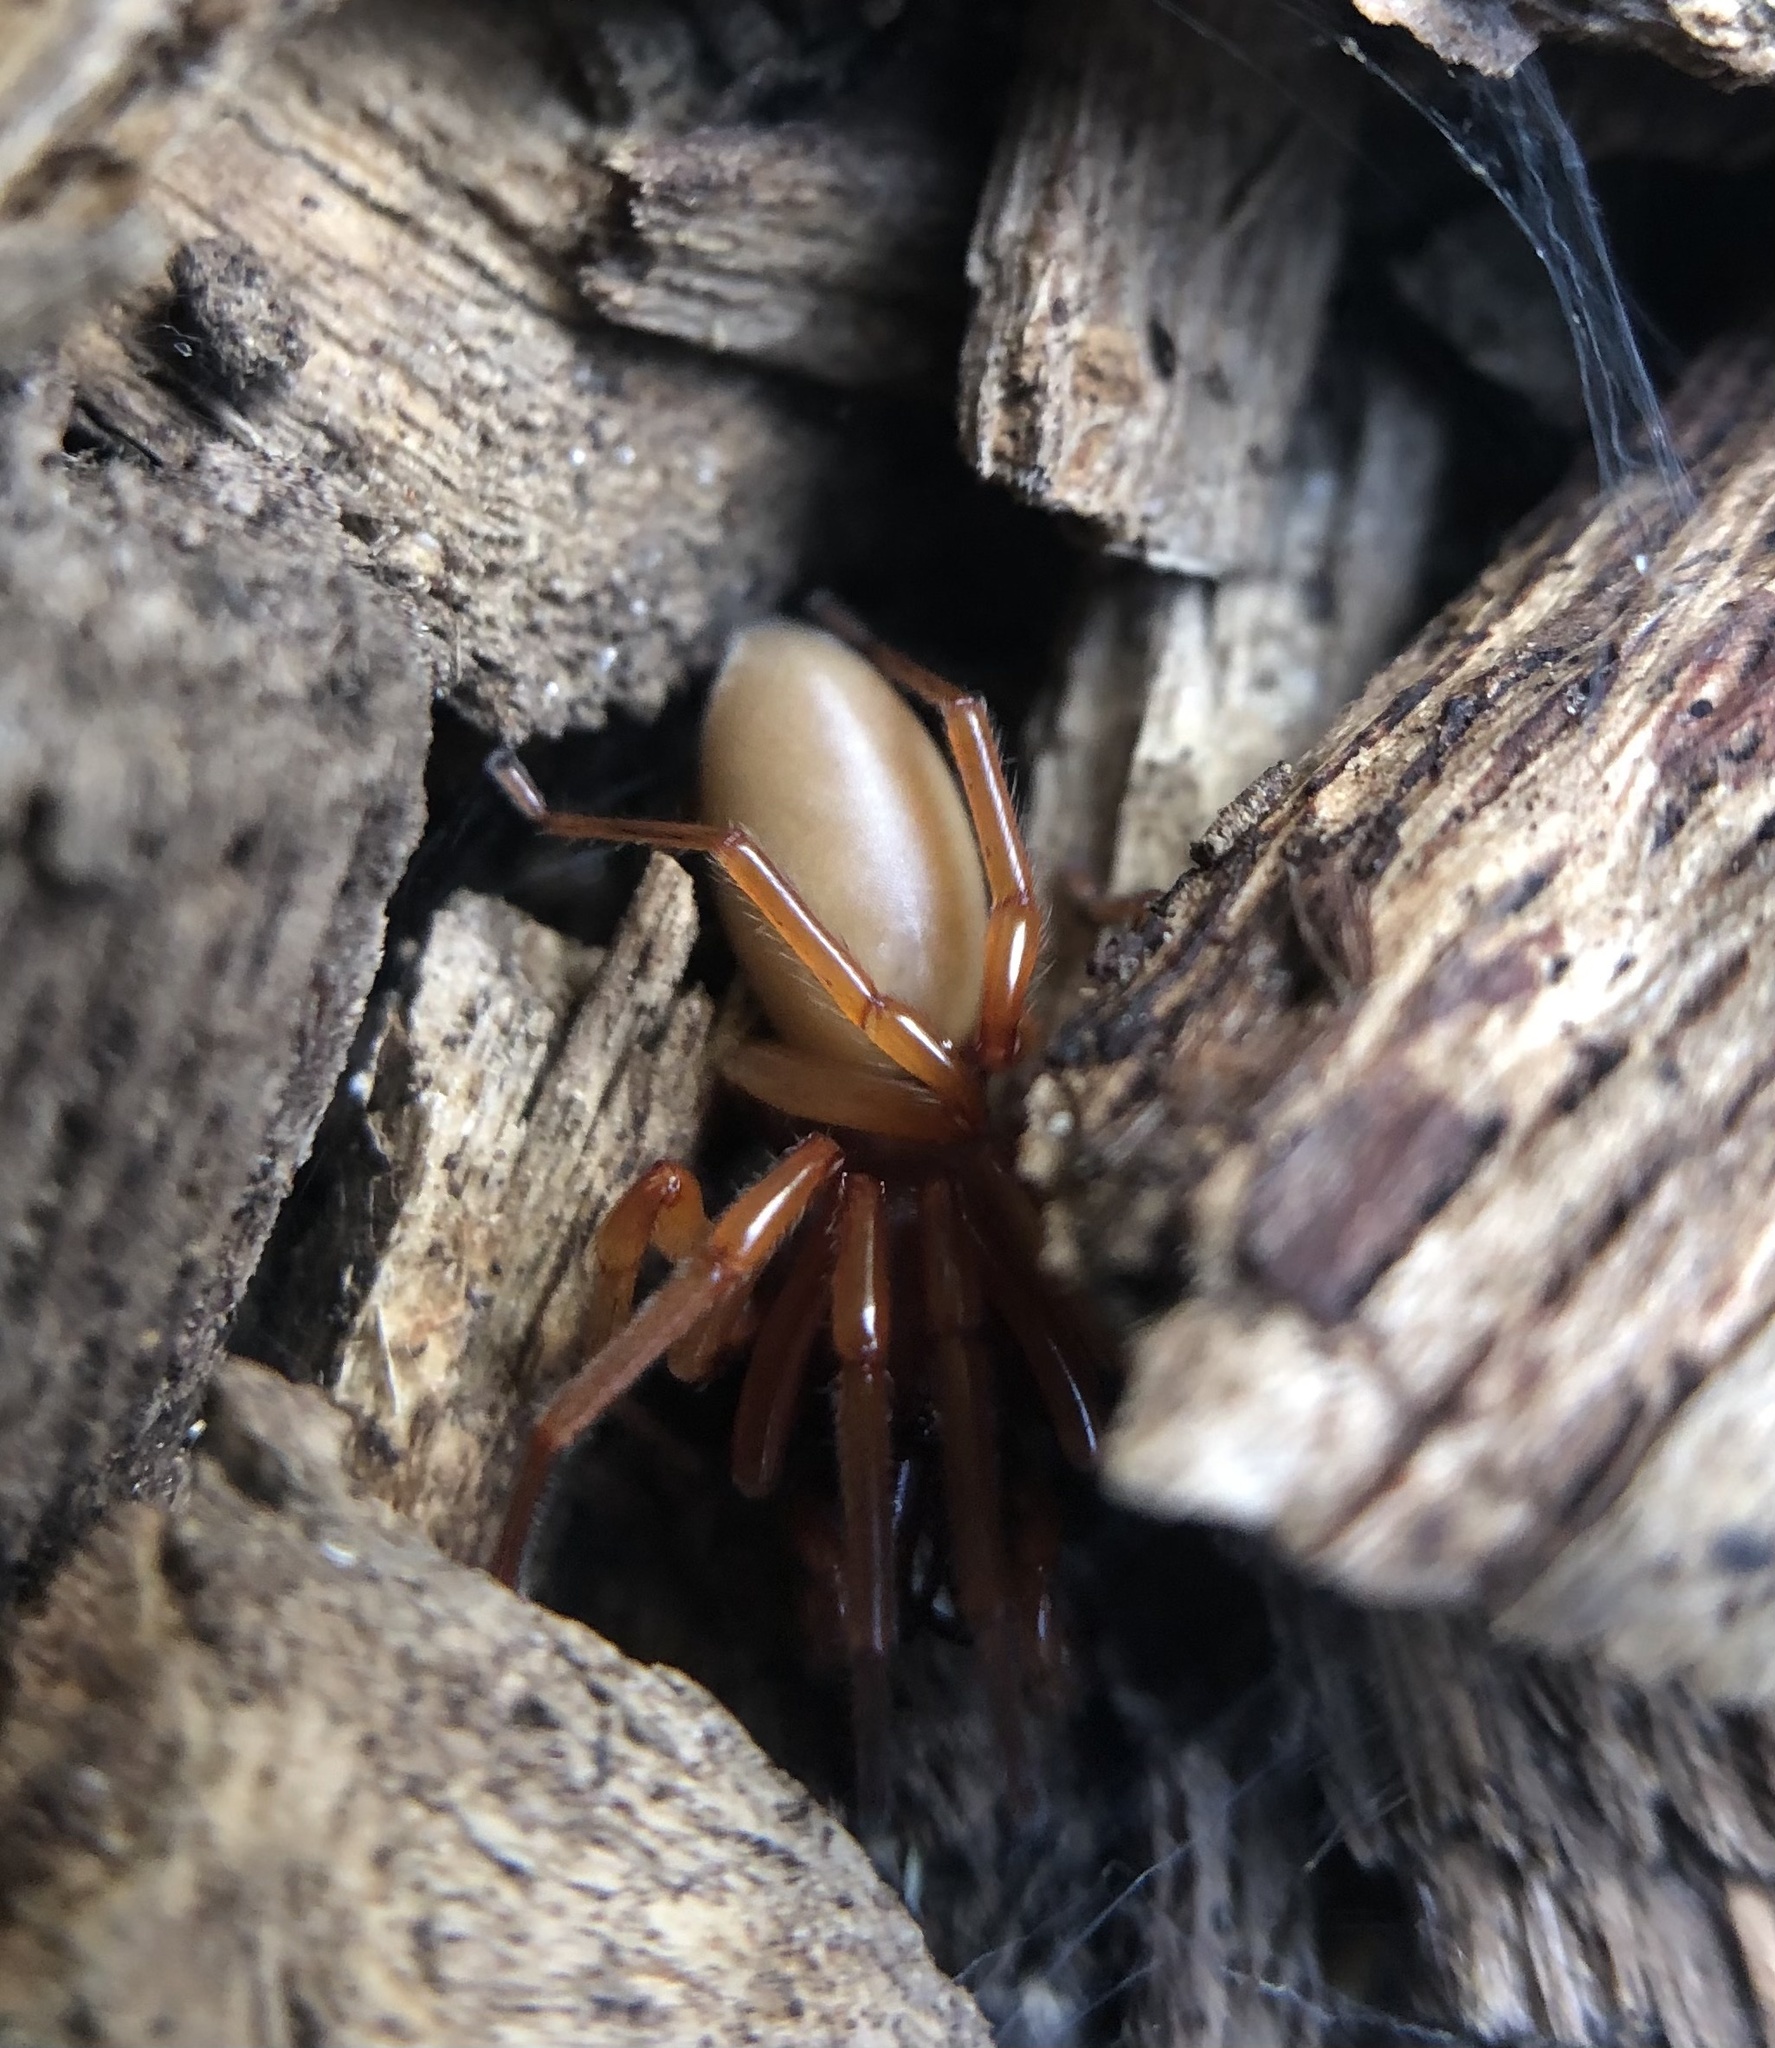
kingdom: Animalia
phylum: Arthropoda
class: Arachnida
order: Araneae
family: Dysderidae
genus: Dysdera
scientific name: Dysdera crocata
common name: Woodlouse spider
